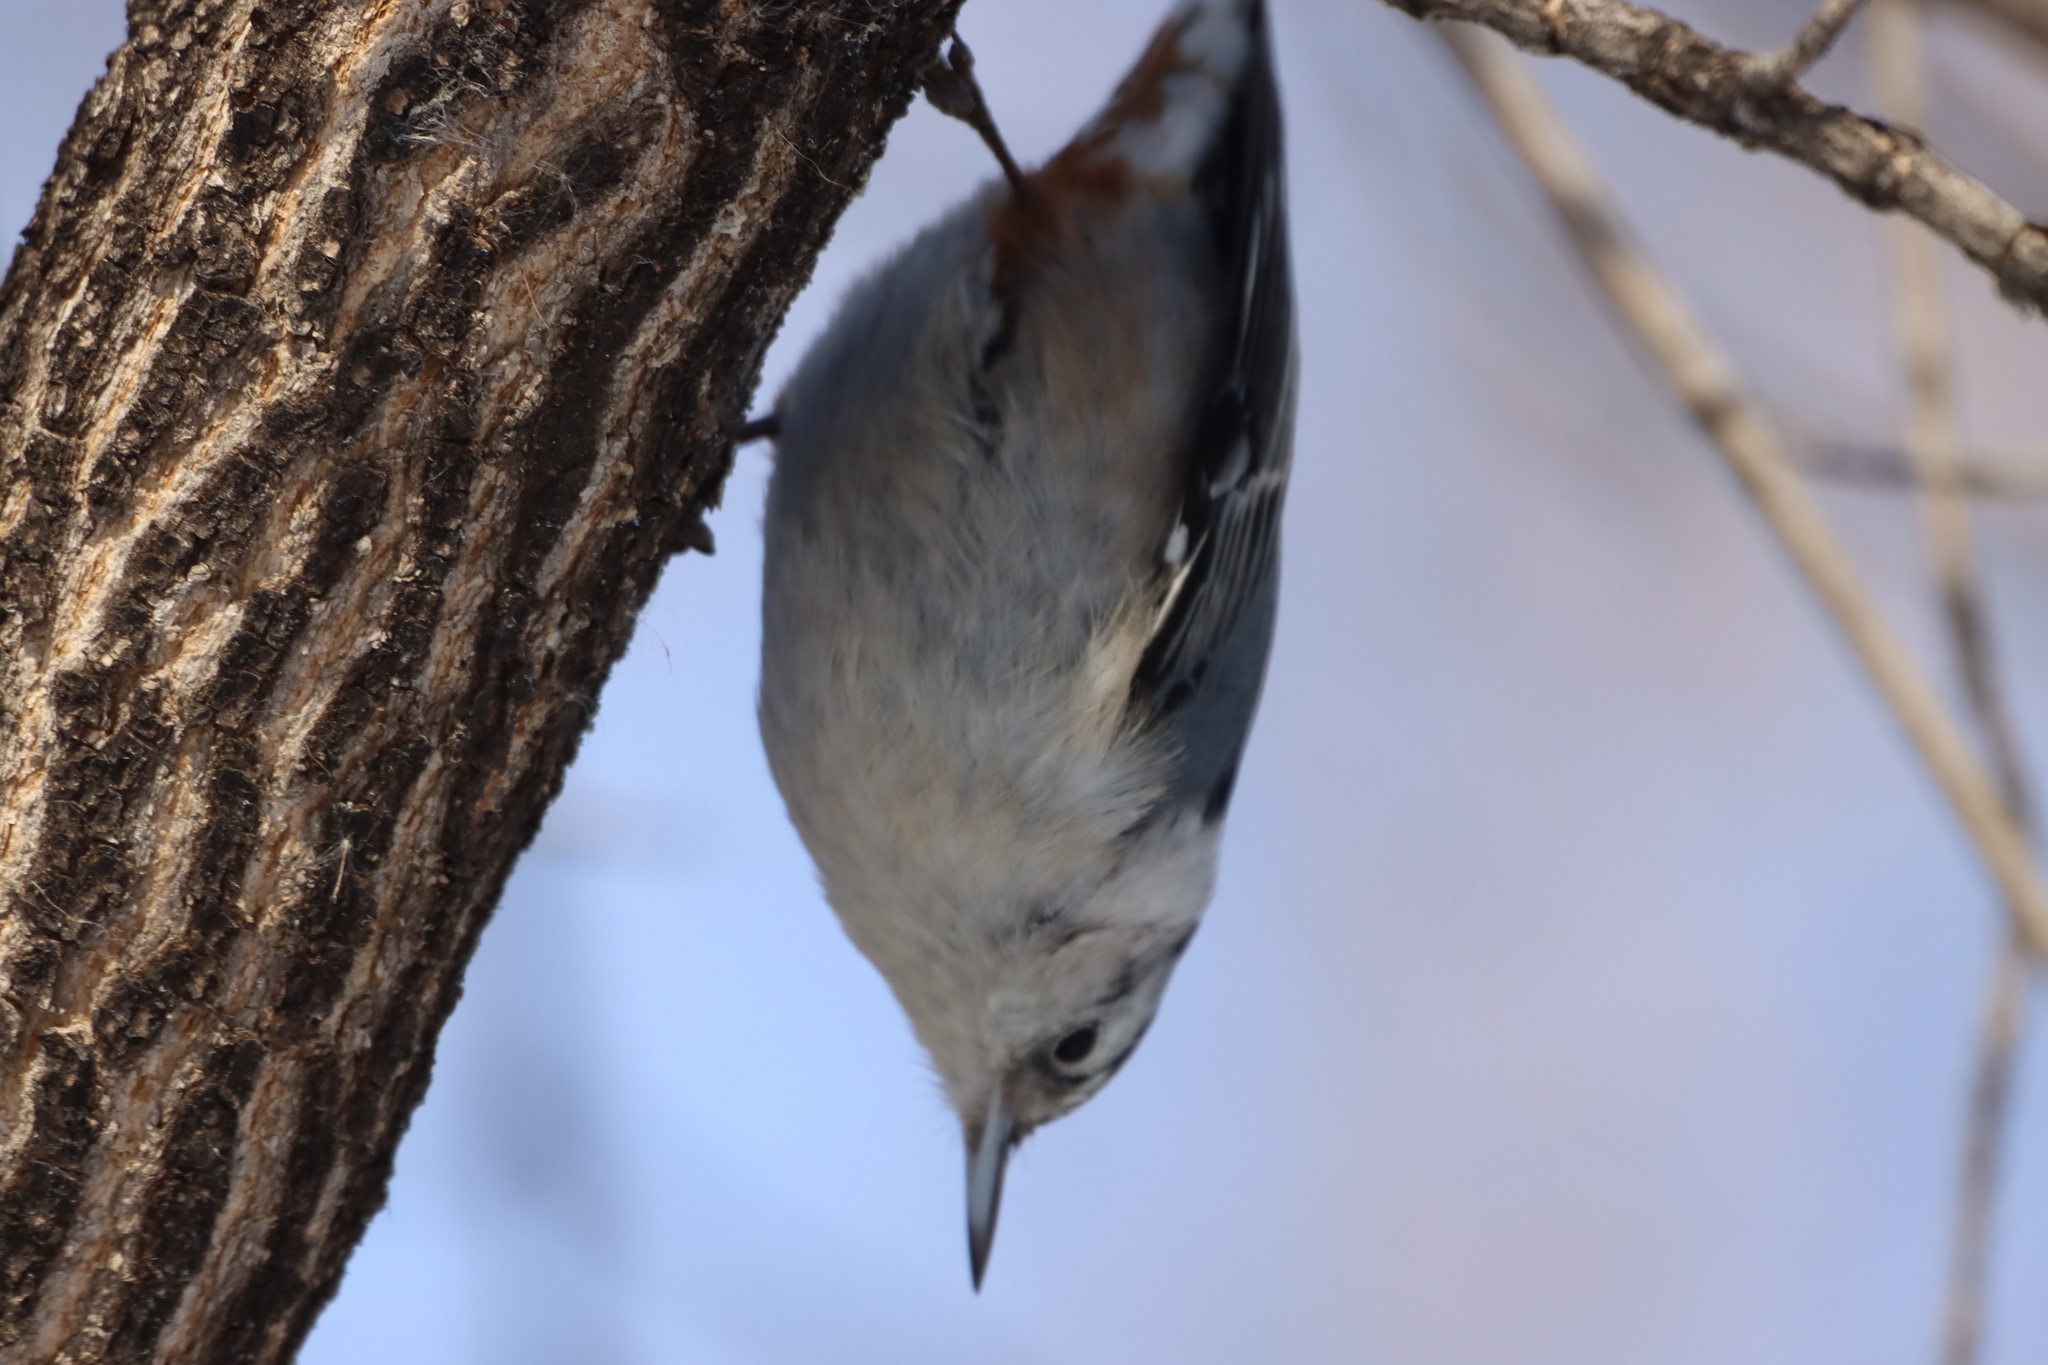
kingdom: Animalia
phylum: Chordata
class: Aves
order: Passeriformes
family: Sittidae
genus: Sitta
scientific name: Sitta carolinensis
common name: White-breasted nuthatch
